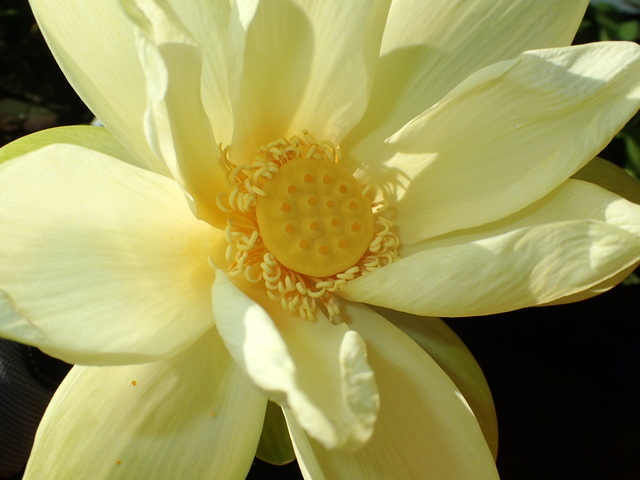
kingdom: Plantae
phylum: Tracheophyta
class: Magnoliopsida
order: Proteales
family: Nelumbonaceae
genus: Nelumbo
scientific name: Nelumbo lutea
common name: American lotus
